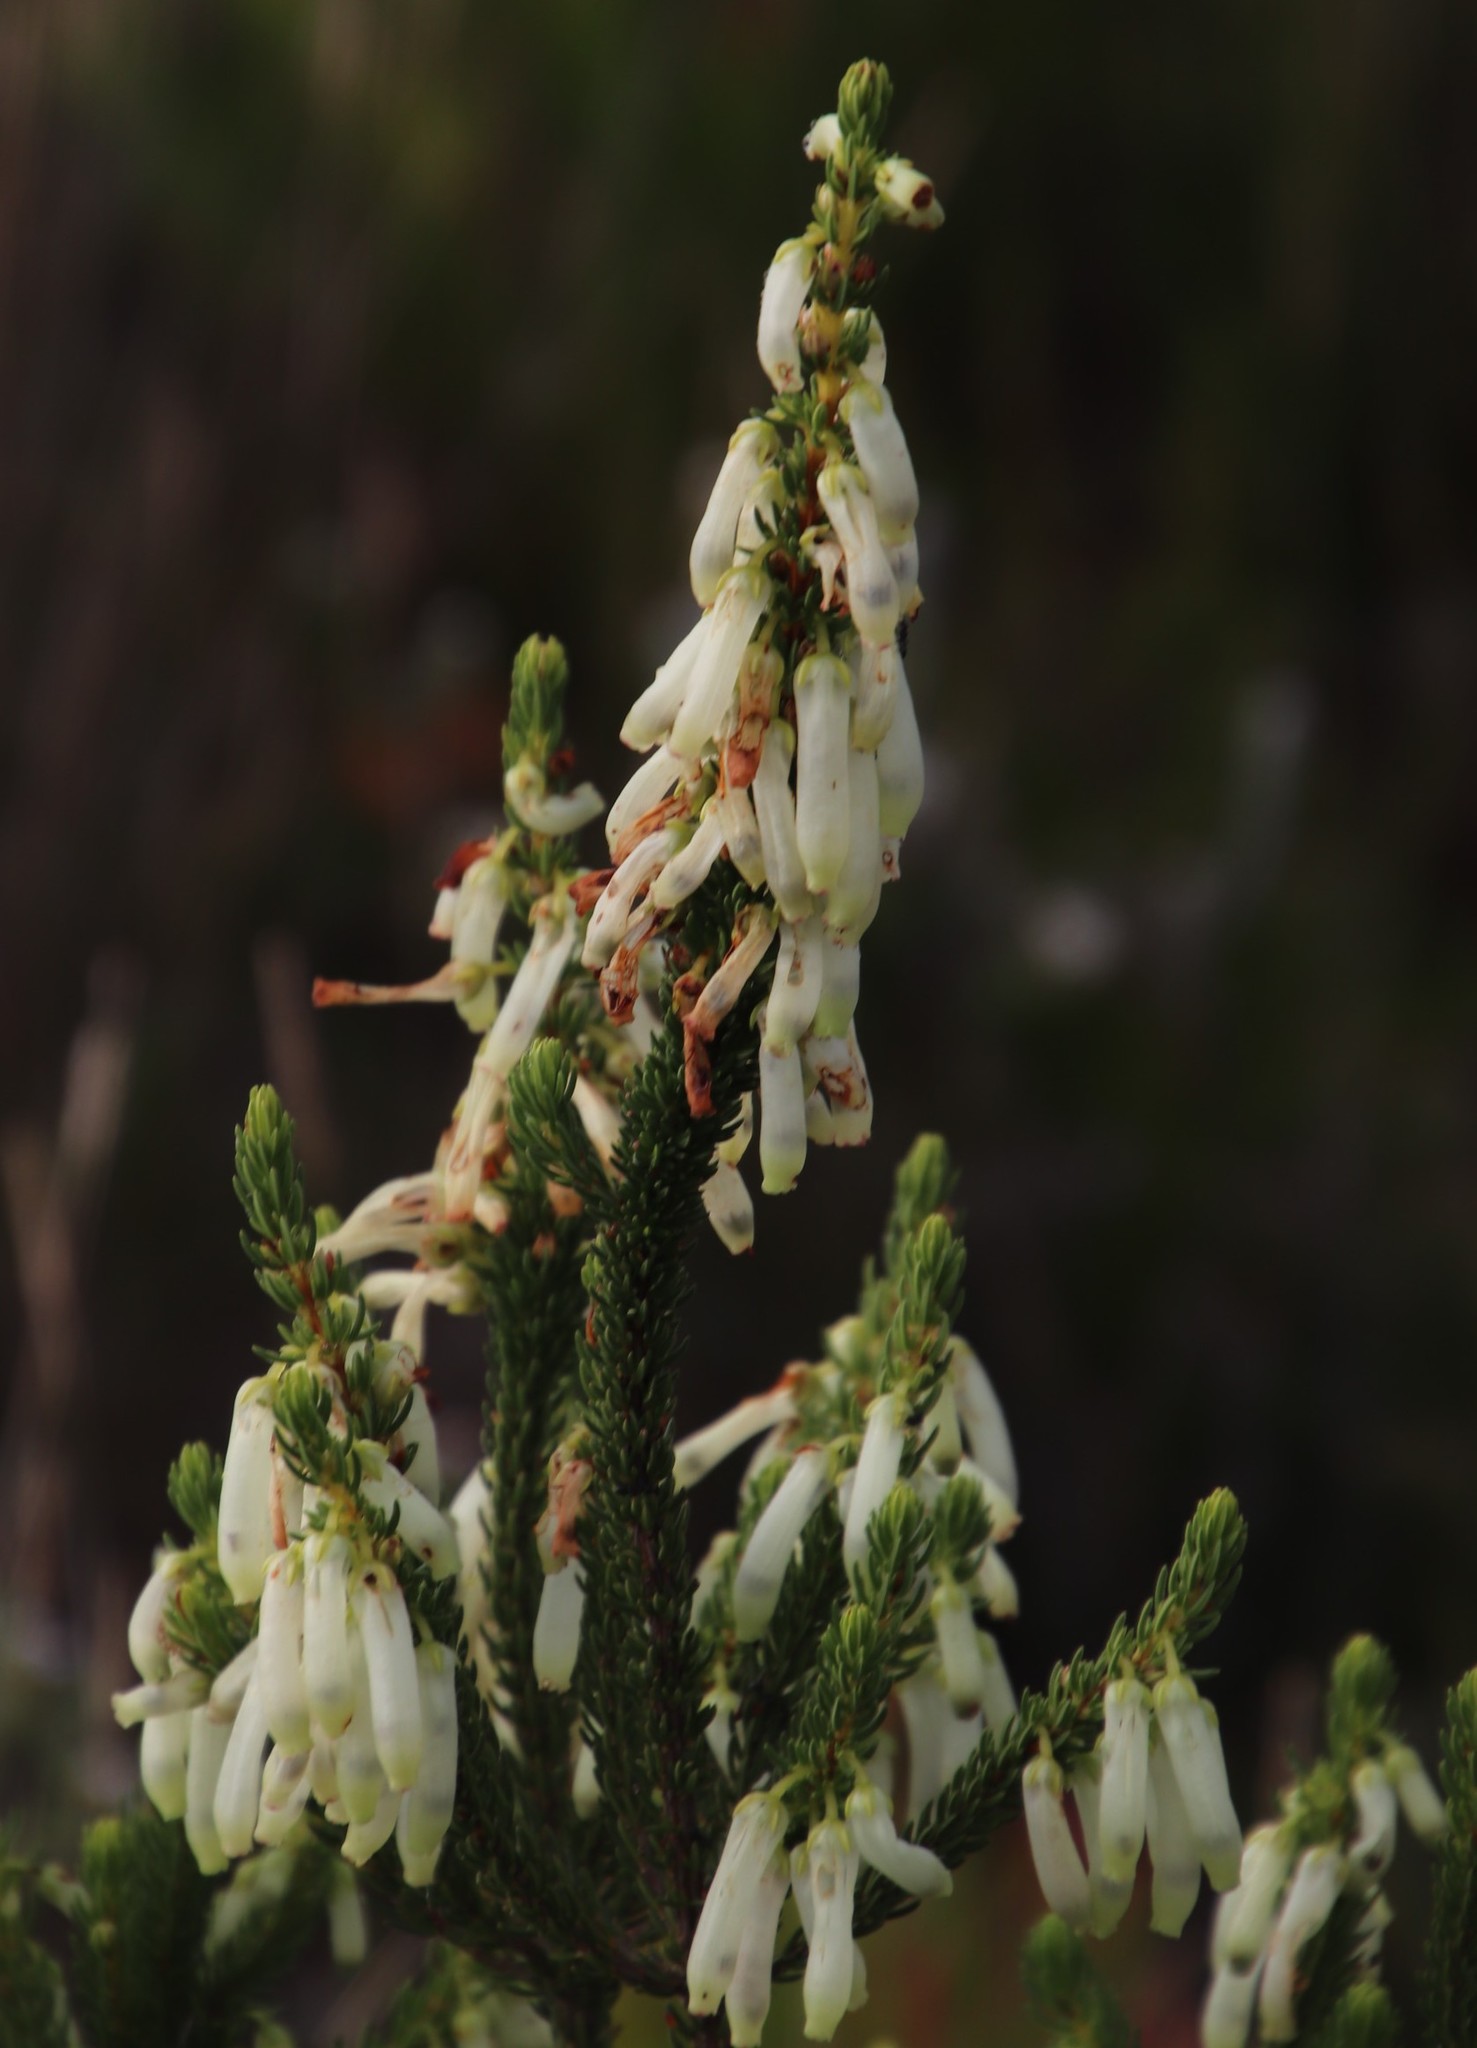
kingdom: Plantae
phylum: Tracheophyta
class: Magnoliopsida
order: Ericales
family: Ericaceae
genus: Erica
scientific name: Erica mammosa
